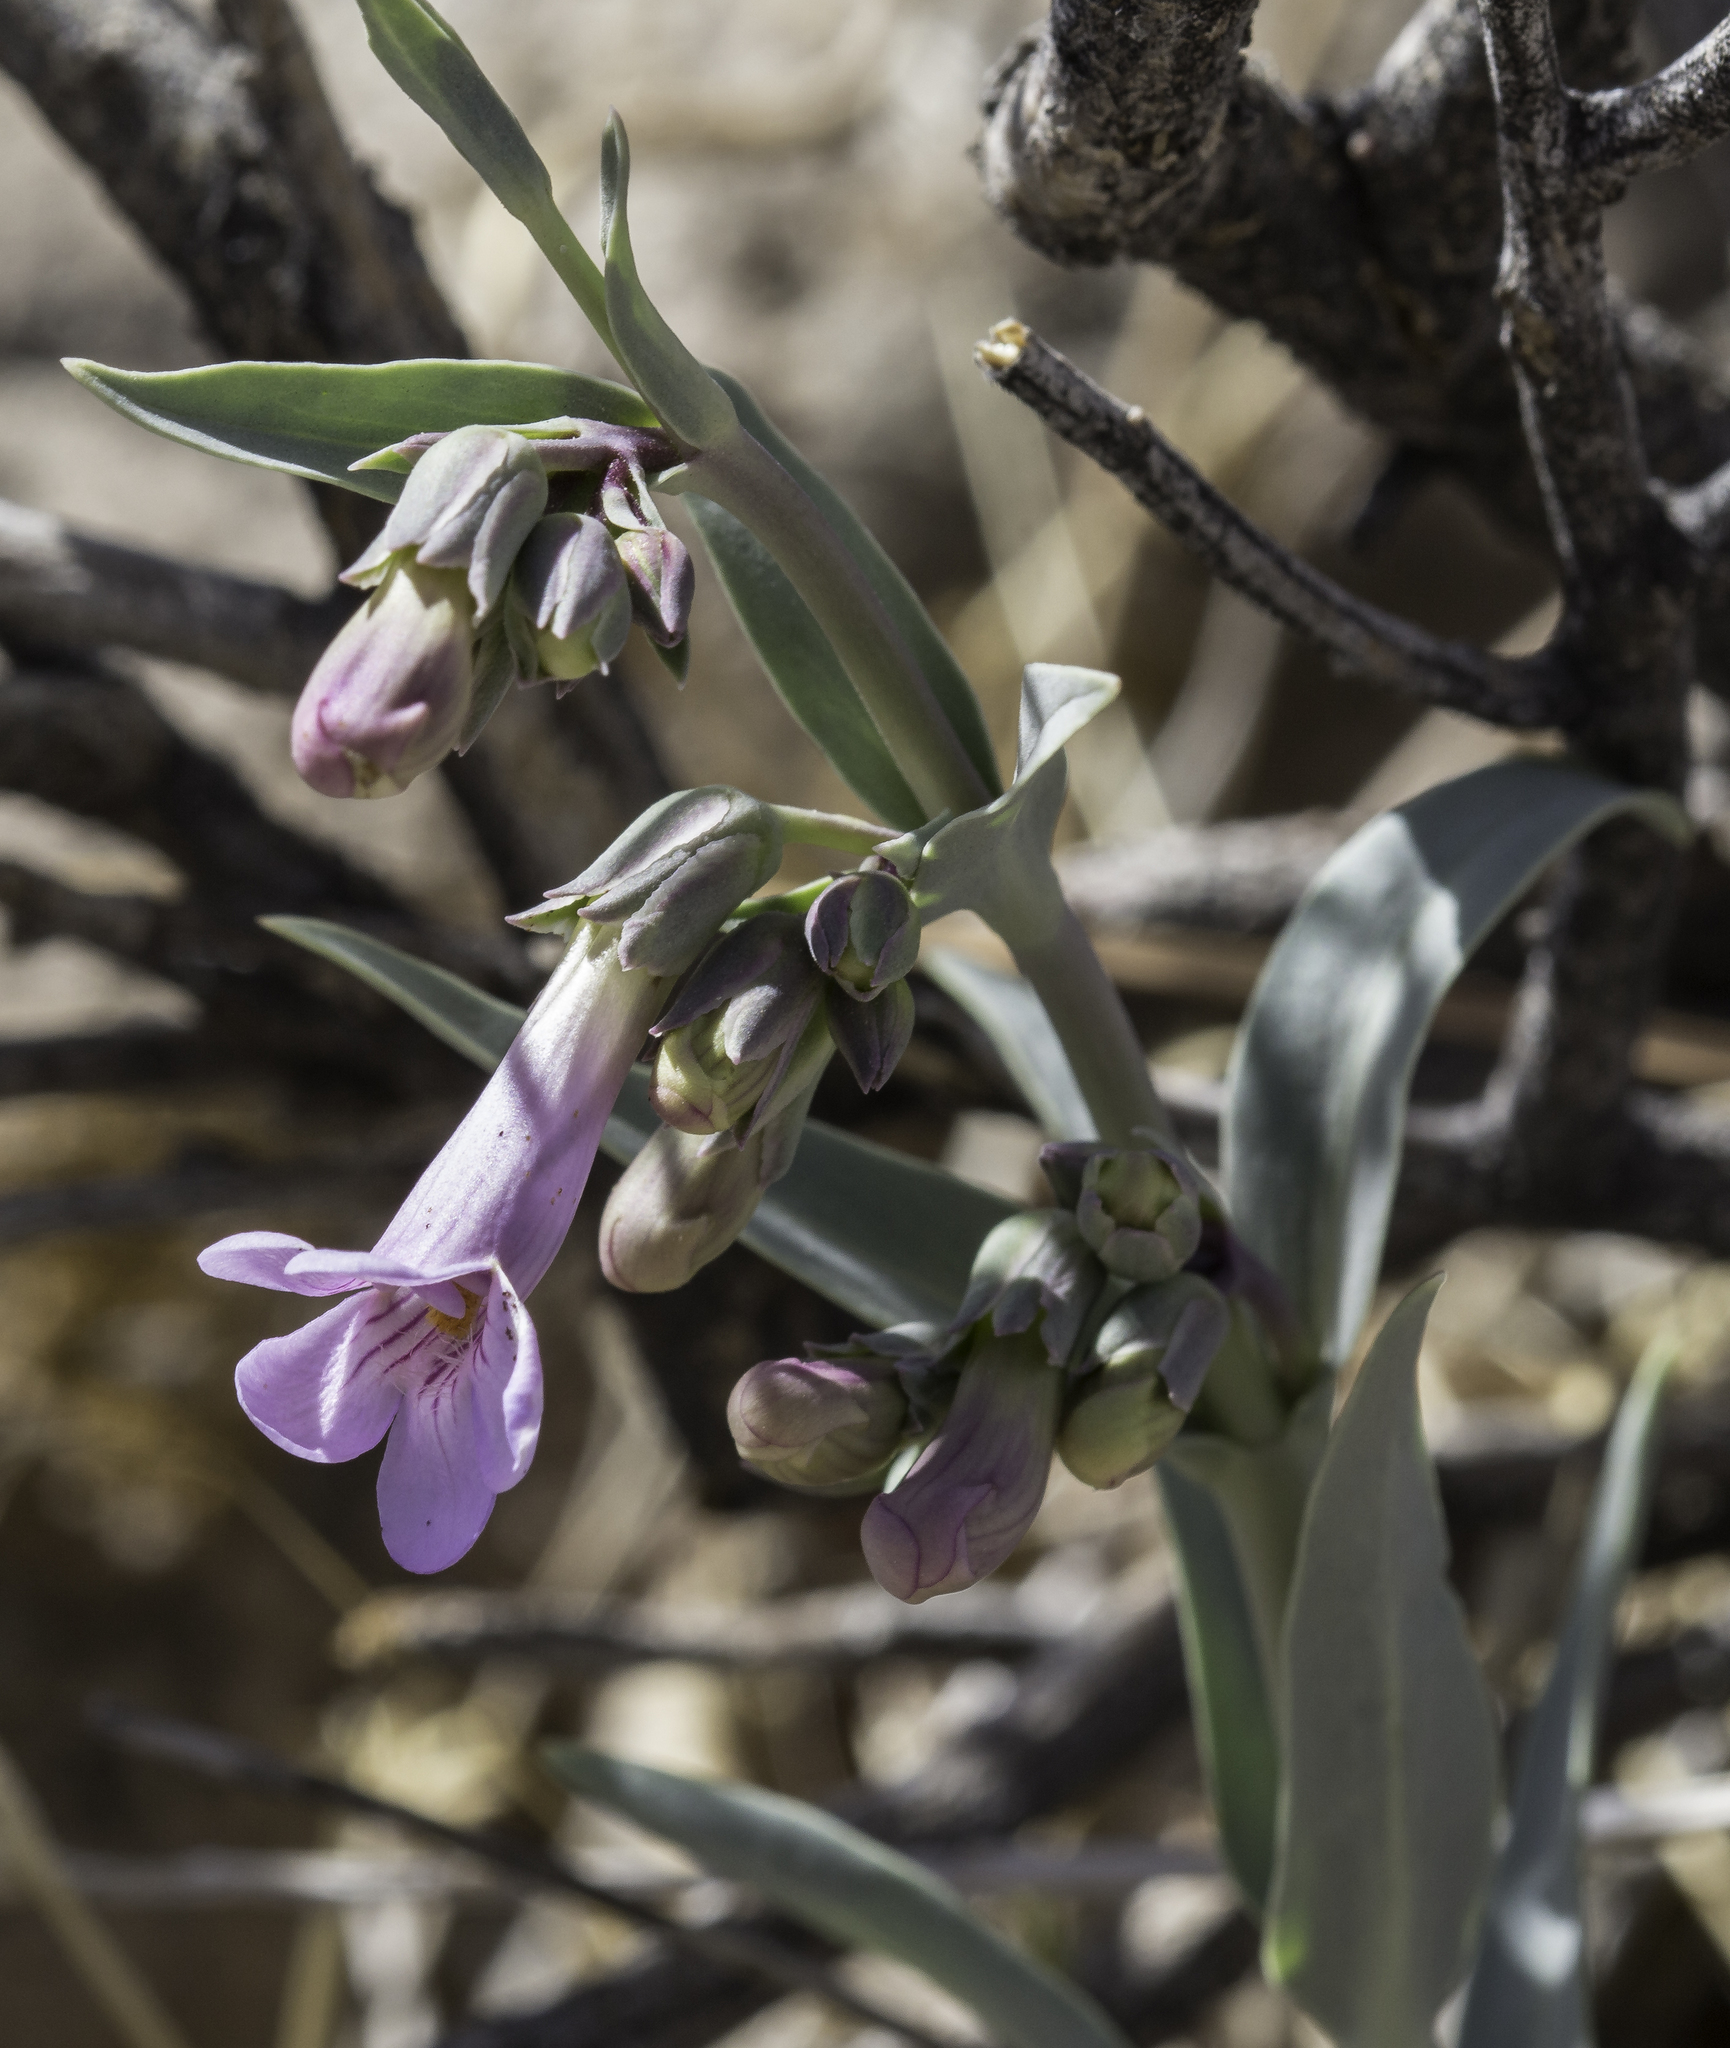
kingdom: Plantae
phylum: Tracheophyta
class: Magnoliopsida
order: Lamiales
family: Plantaginaceae
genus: Penstemon
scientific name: Penstemon secundiflorus
